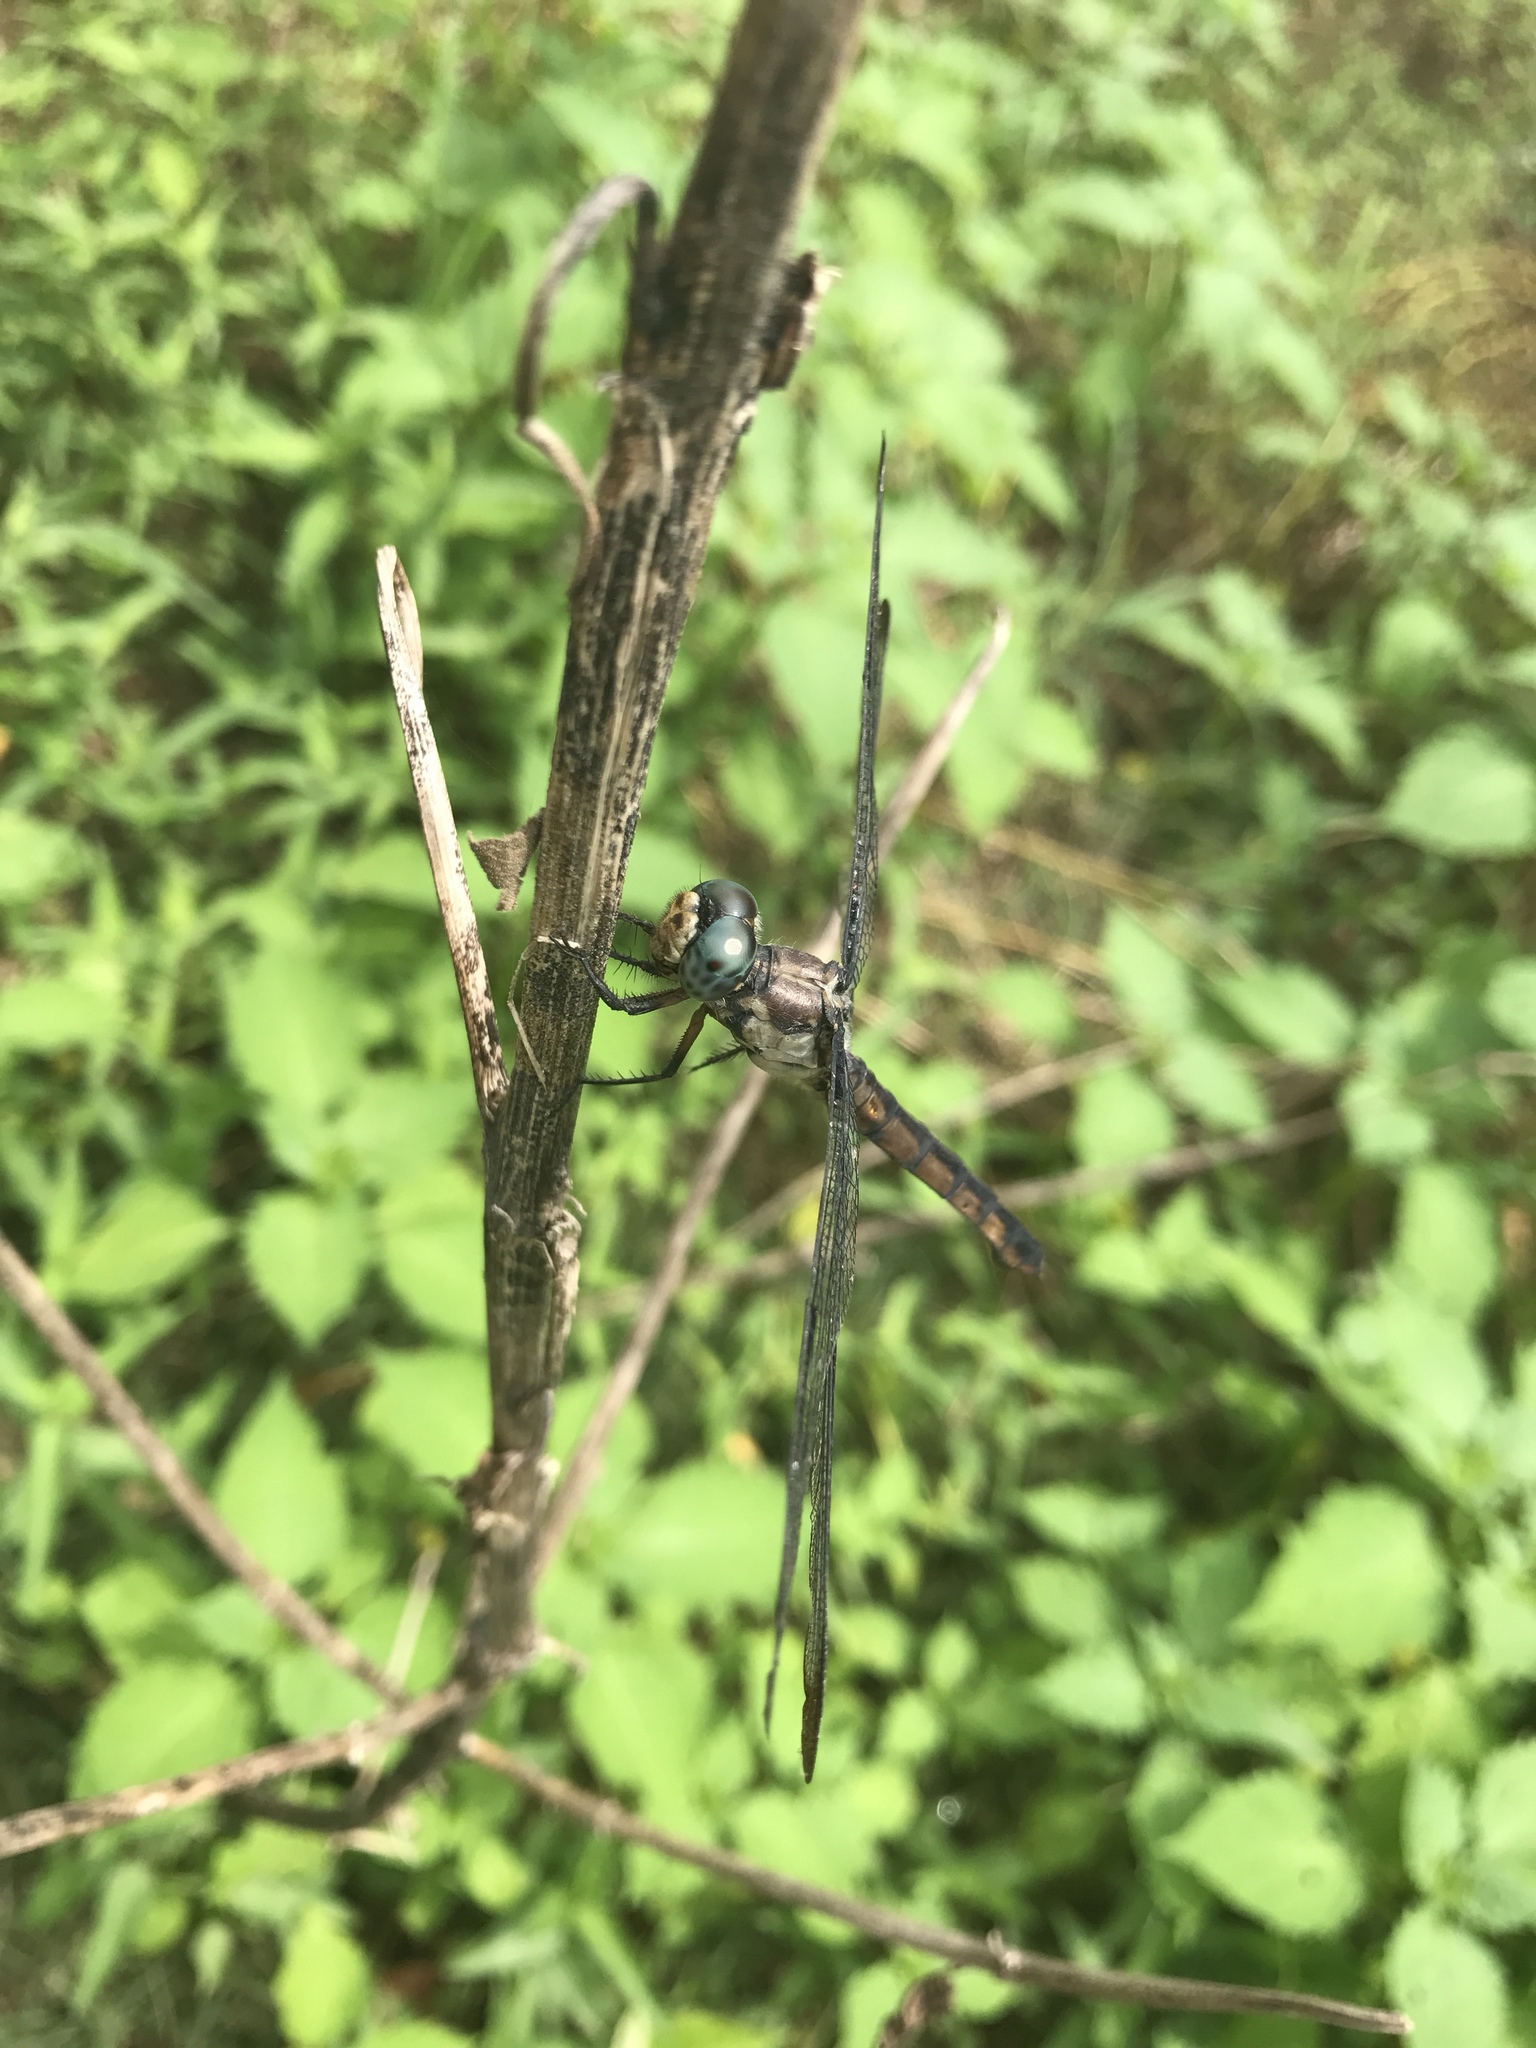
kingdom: Animalia
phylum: Arthropoda
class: Insecta
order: Odonata
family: Libellulidae
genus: Libellula
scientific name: Libellula vibrans
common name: Great blue skimmer
